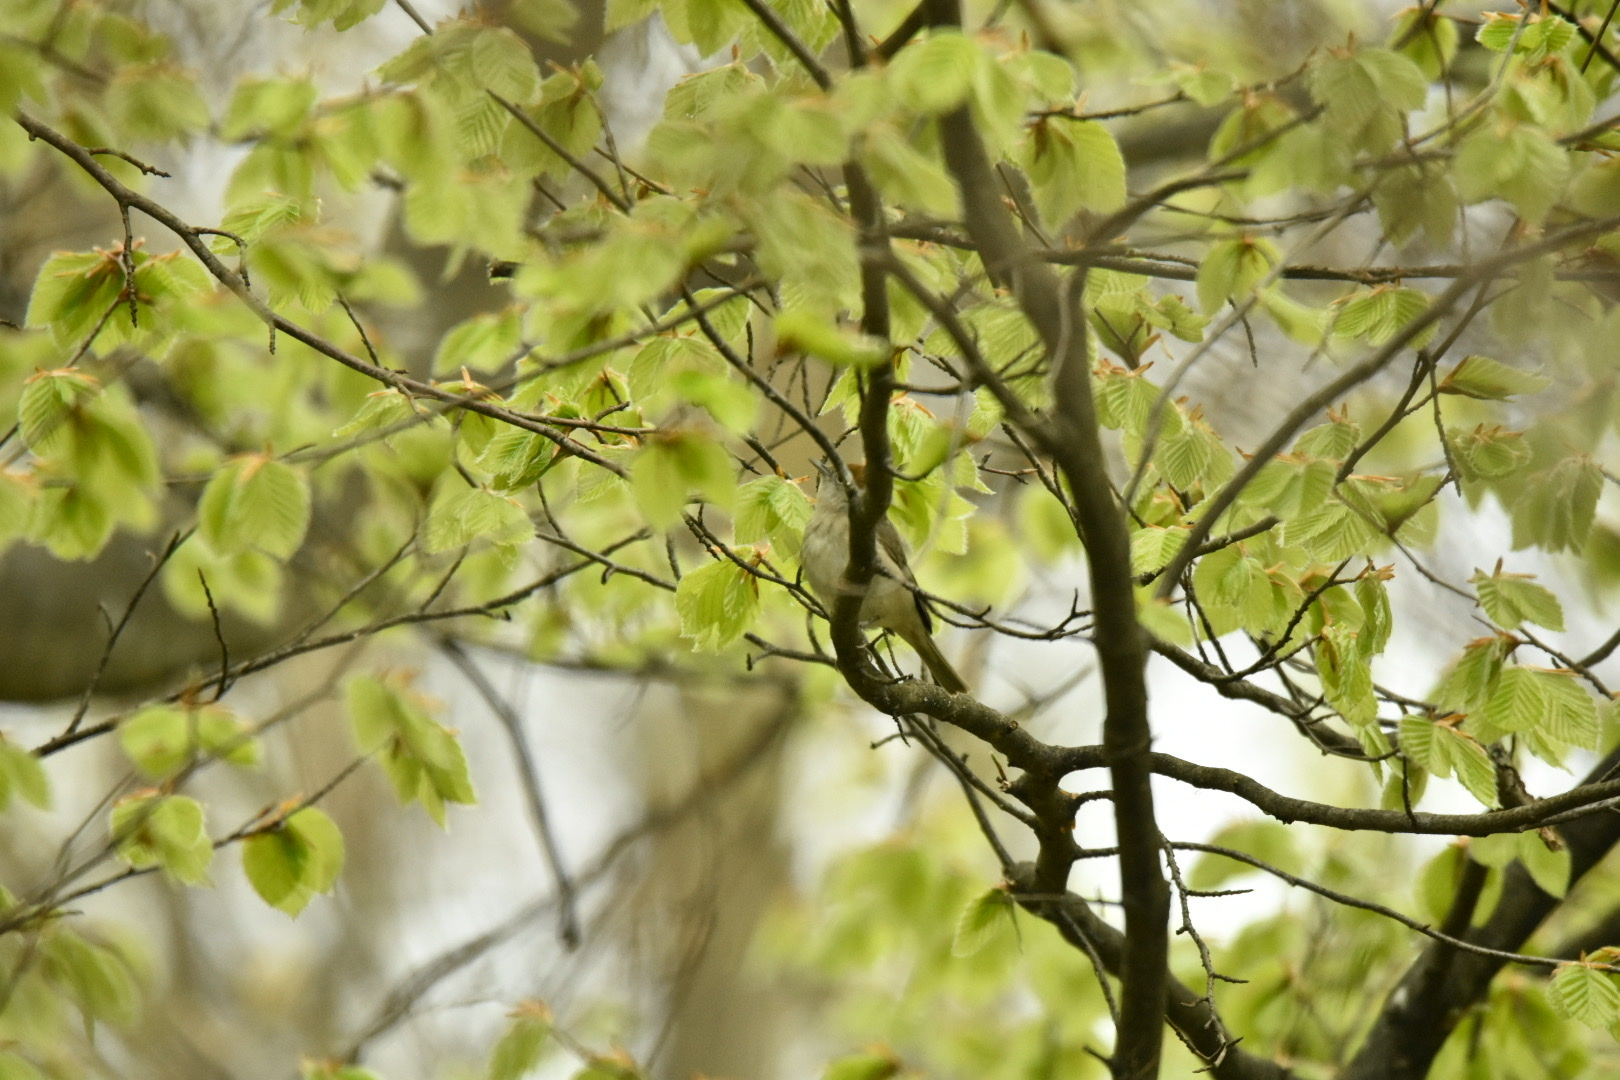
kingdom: Animalia
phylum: Chordata
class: Aves
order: Passeriformes
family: Sylviidae
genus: Sylvia
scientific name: Sylvia atricapilla
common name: Eurasian blackcap
